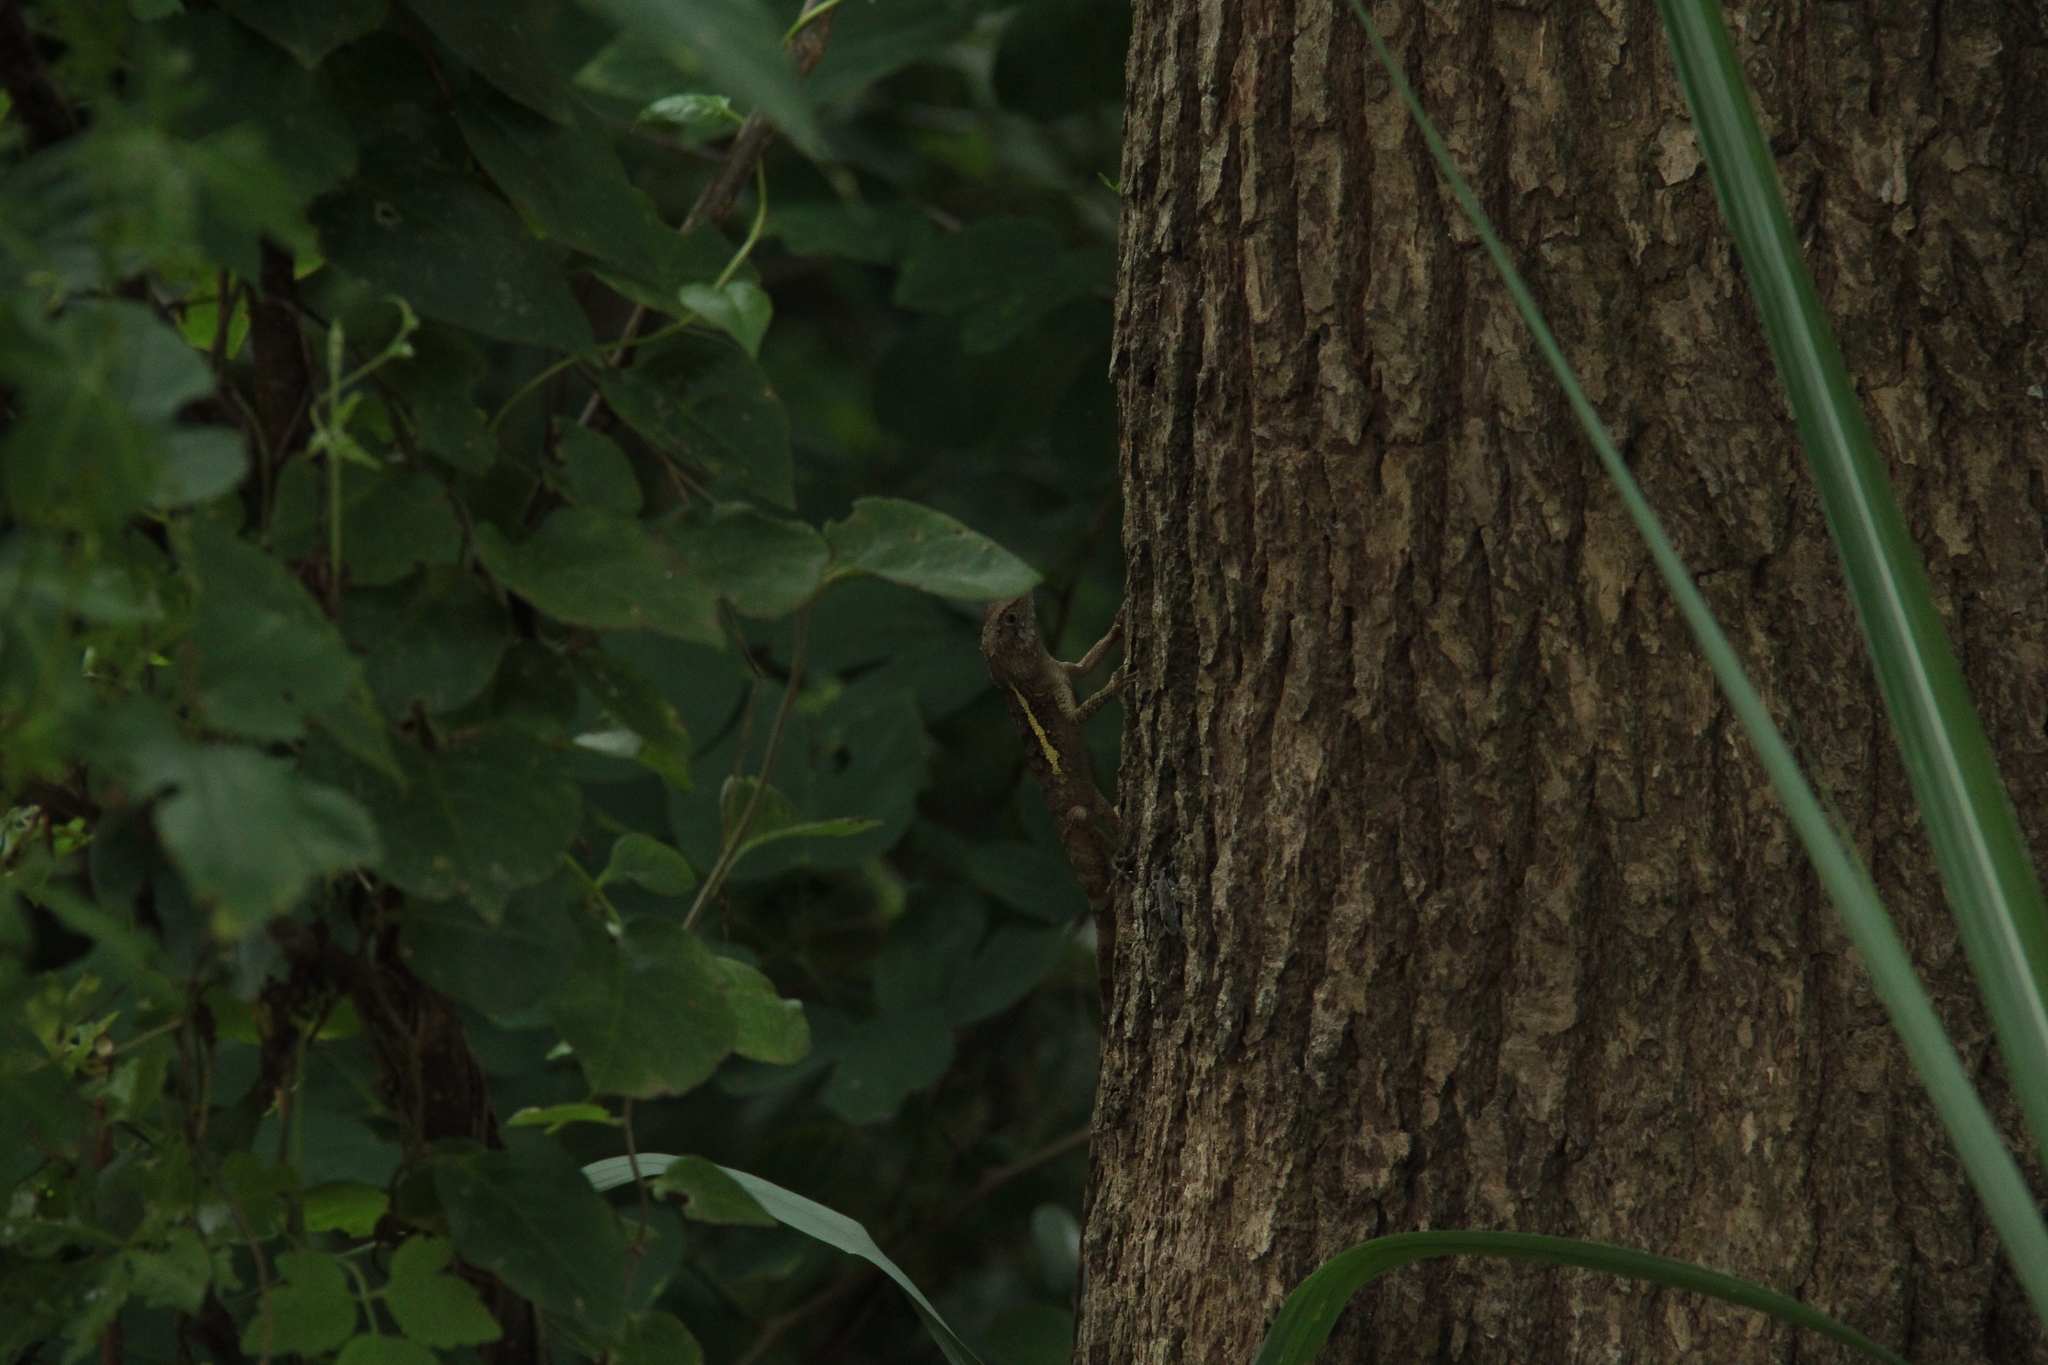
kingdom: Animalia
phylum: Chordata
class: Squamata
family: Agamidae
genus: Diploderma
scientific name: Diploderma swinhonis
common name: Taiwan japalure
